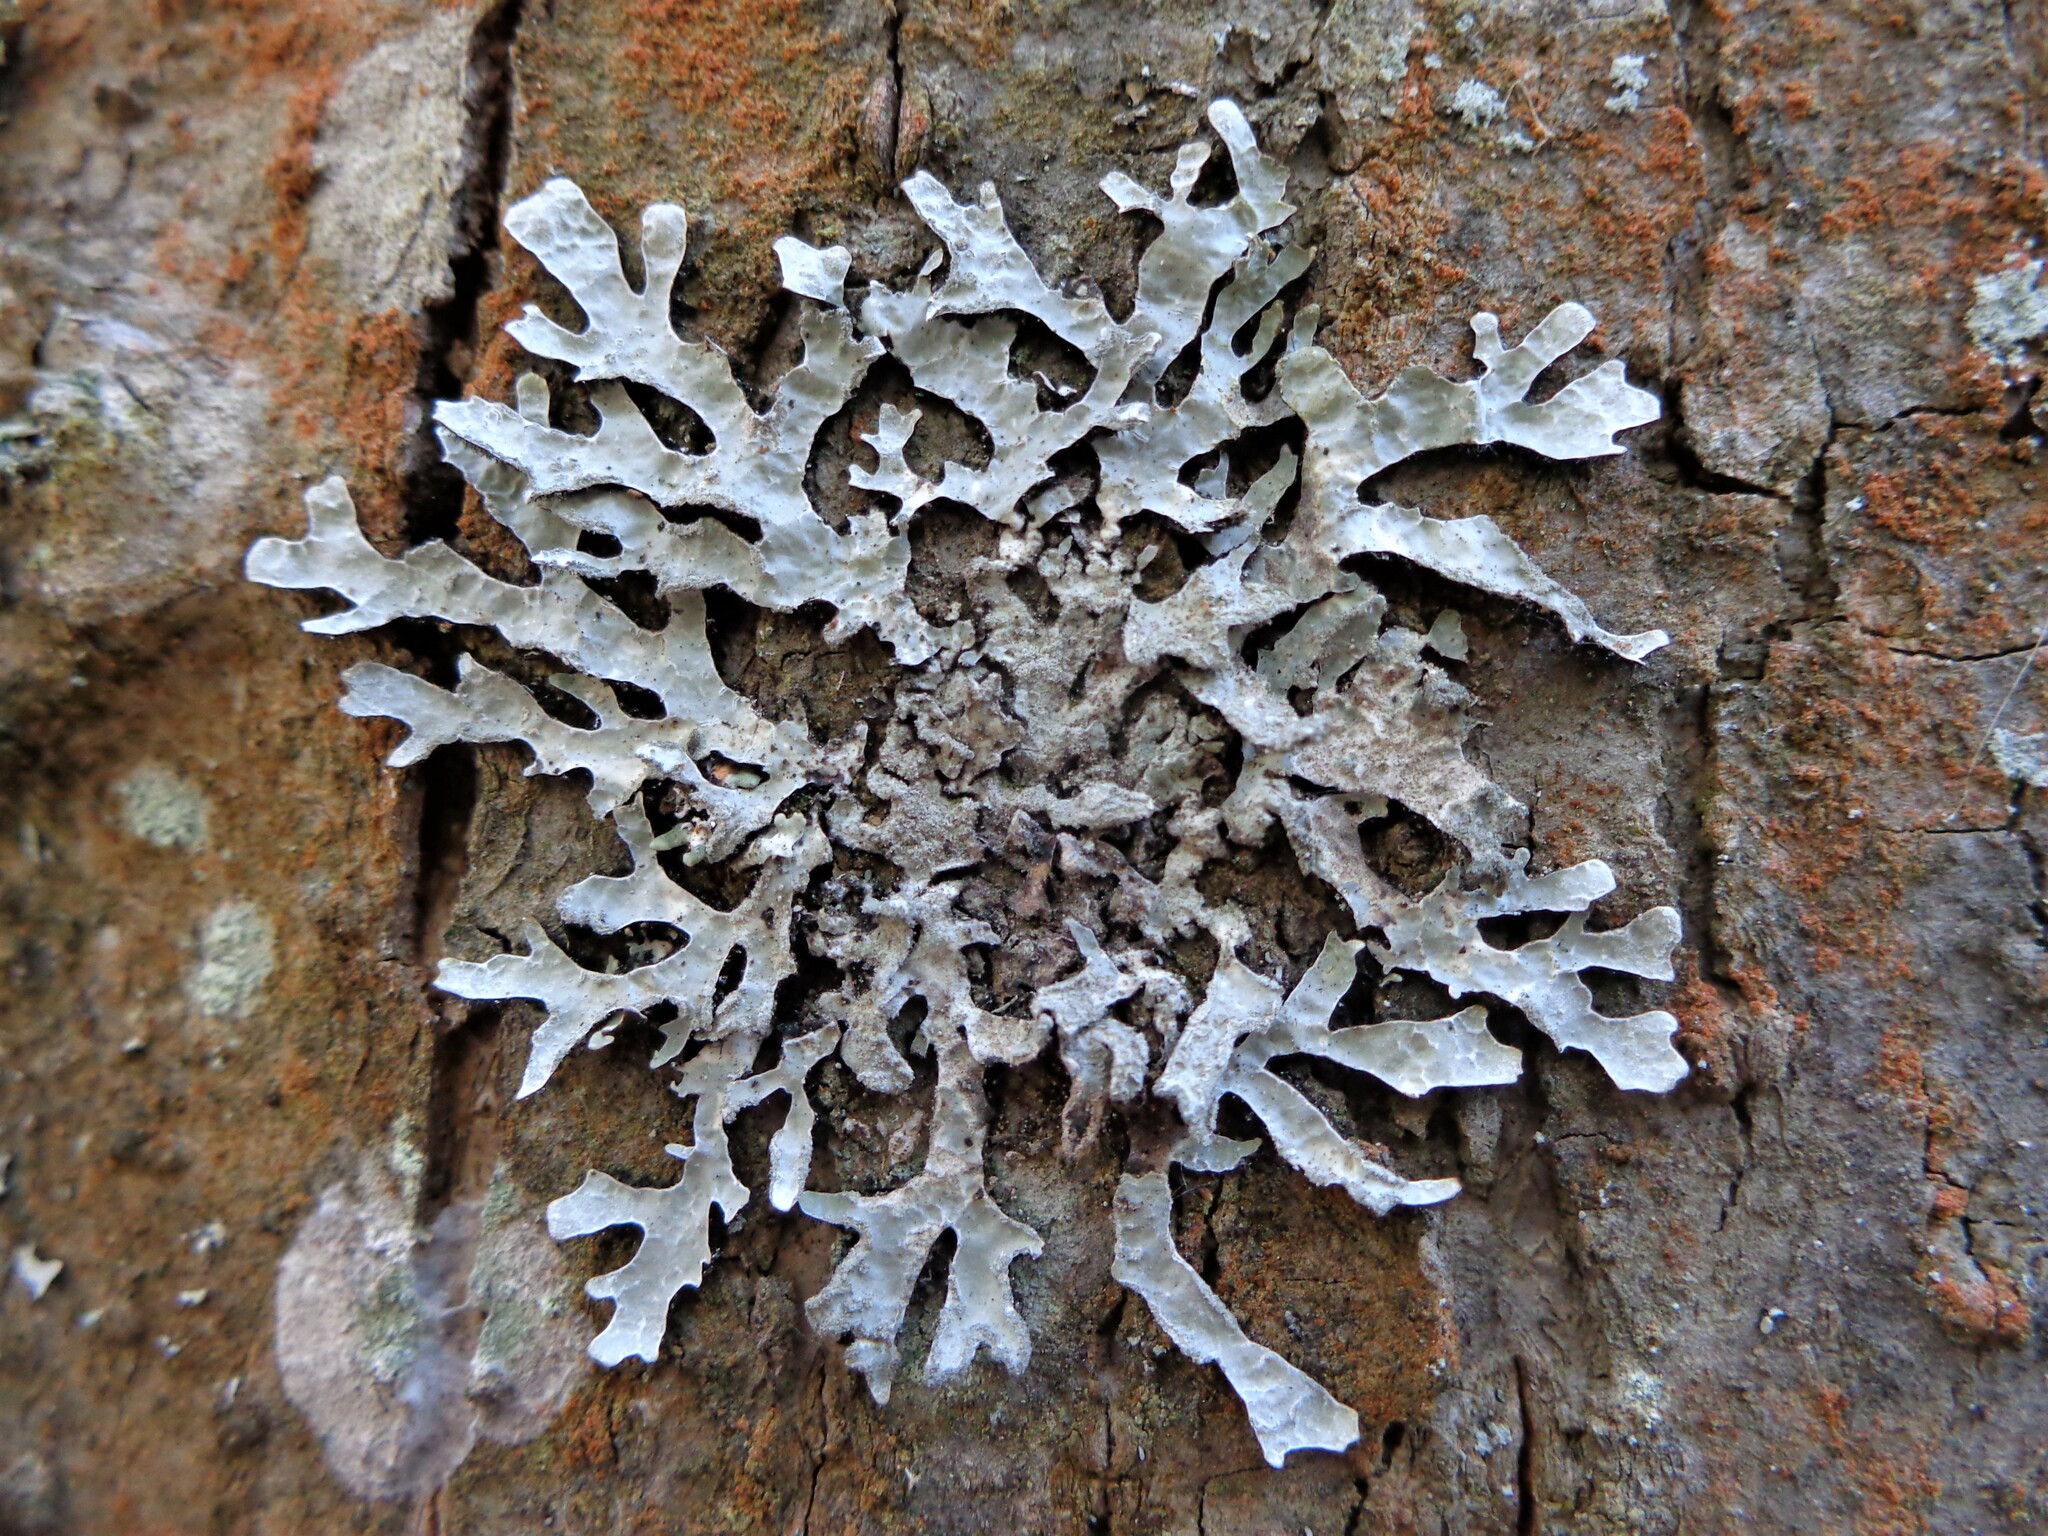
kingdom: Fungi
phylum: Ascomycota
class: Lecanoromycetes
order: Lecanorales
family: Parmeliaceae
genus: Parmelia
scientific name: Parmelia sulcata
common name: Netted shield lichen
